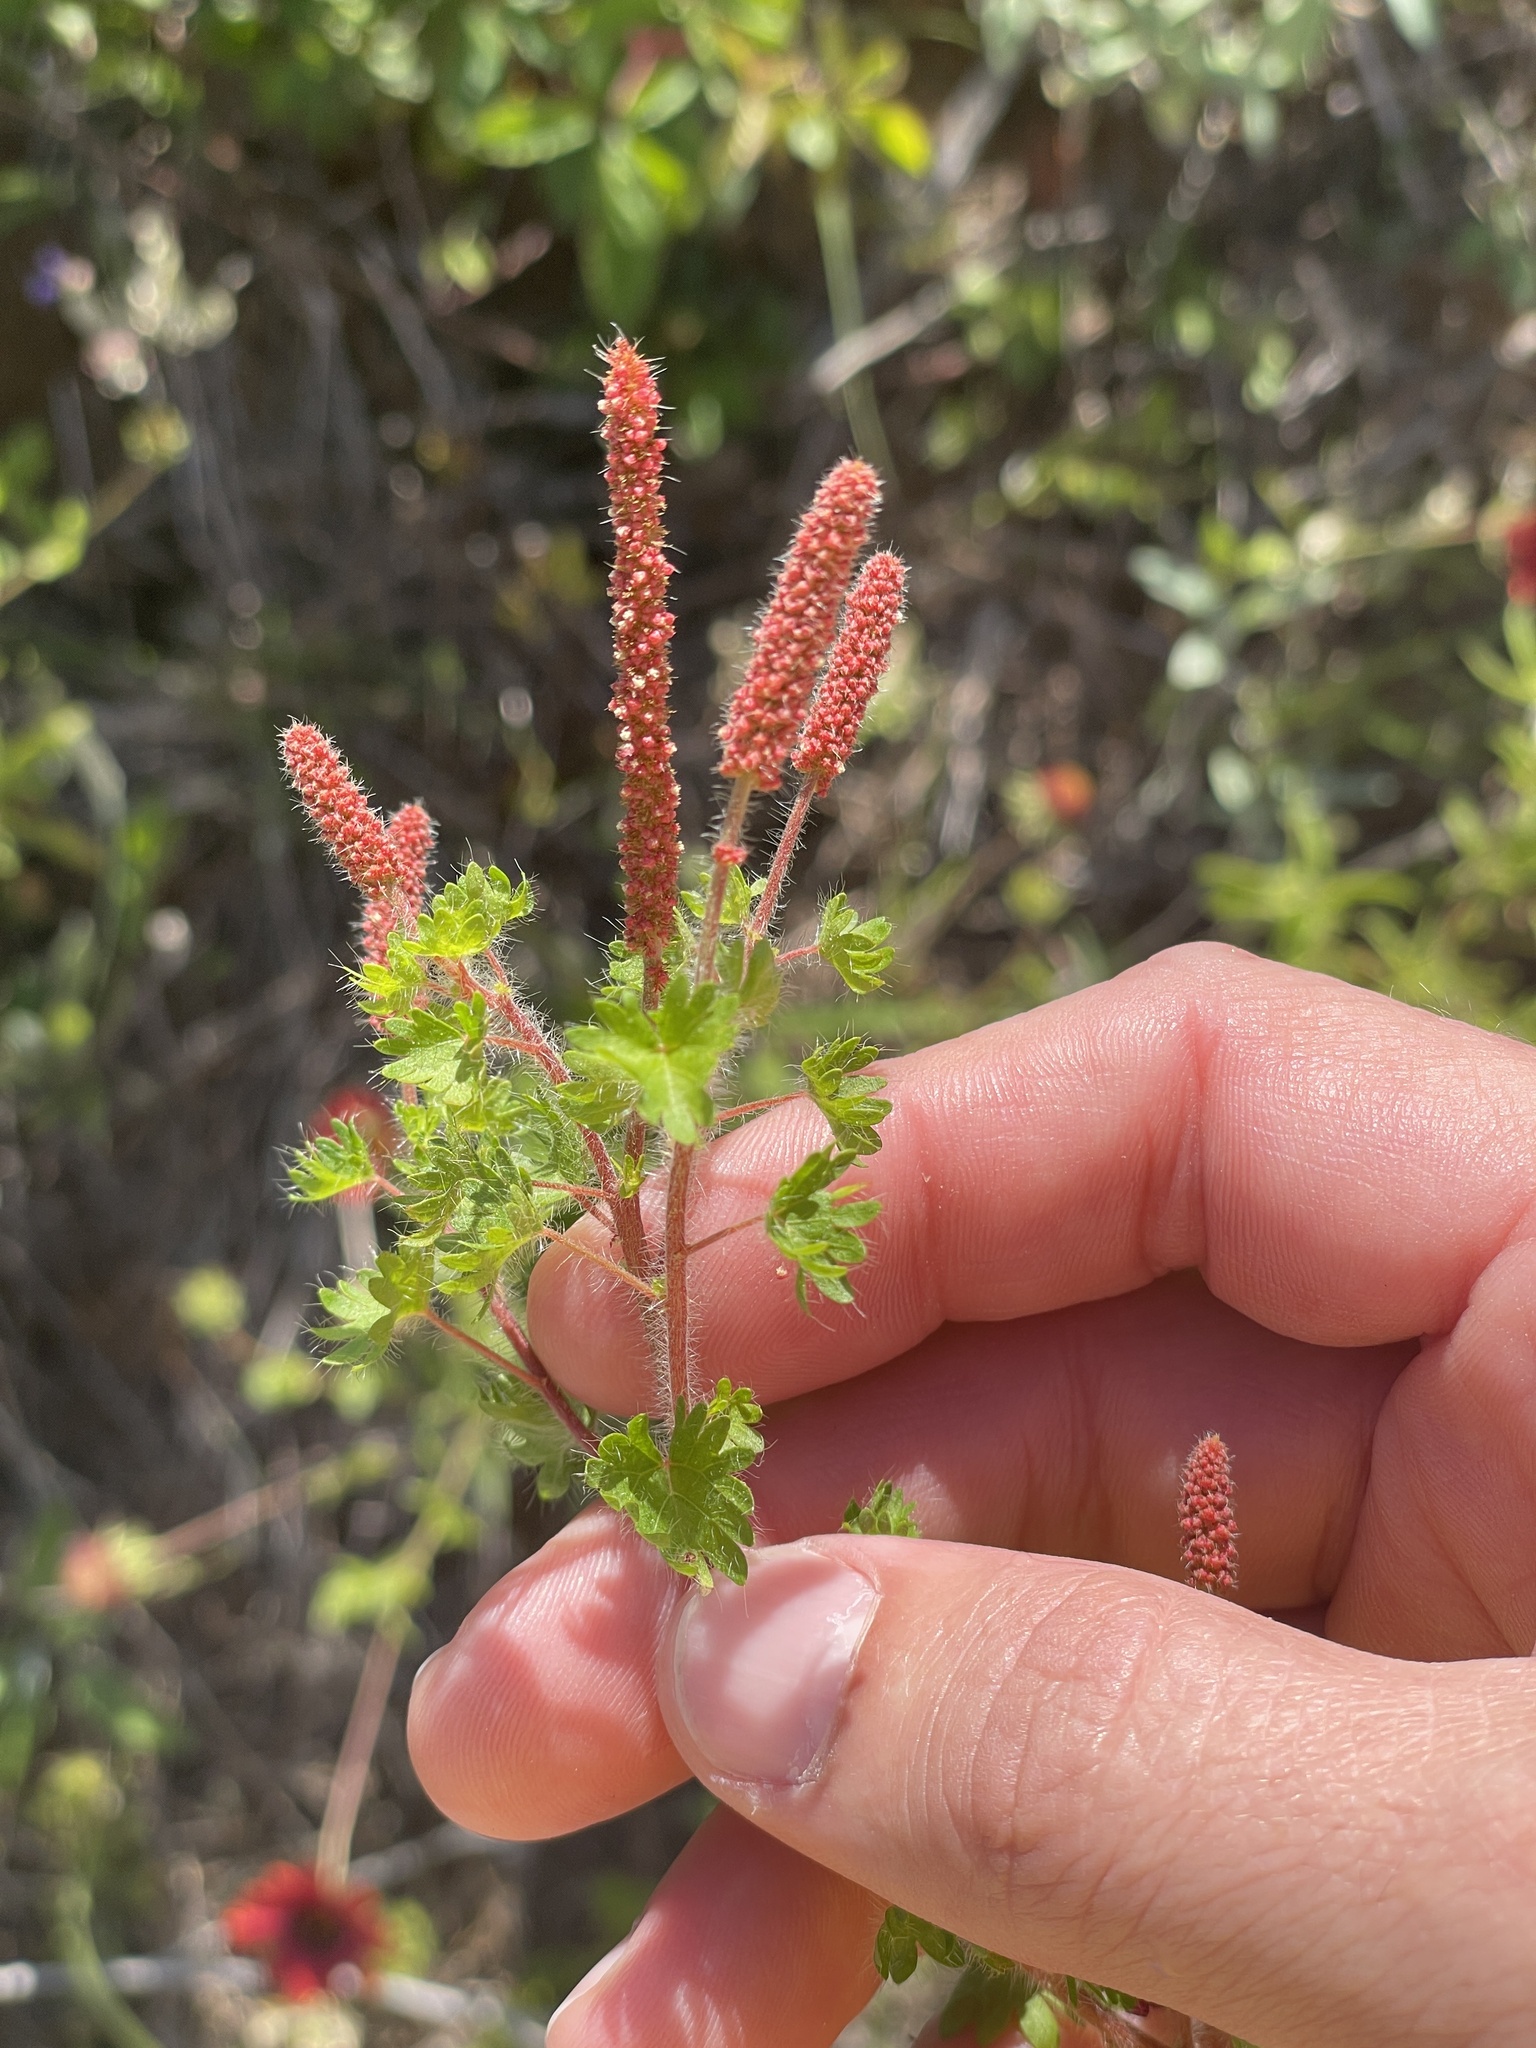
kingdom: Plantae
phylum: Tracheophyta
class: Magnoliopsida
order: Malpighiales
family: Euphorbiaceae
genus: Acalypha
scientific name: Acalypha radians
